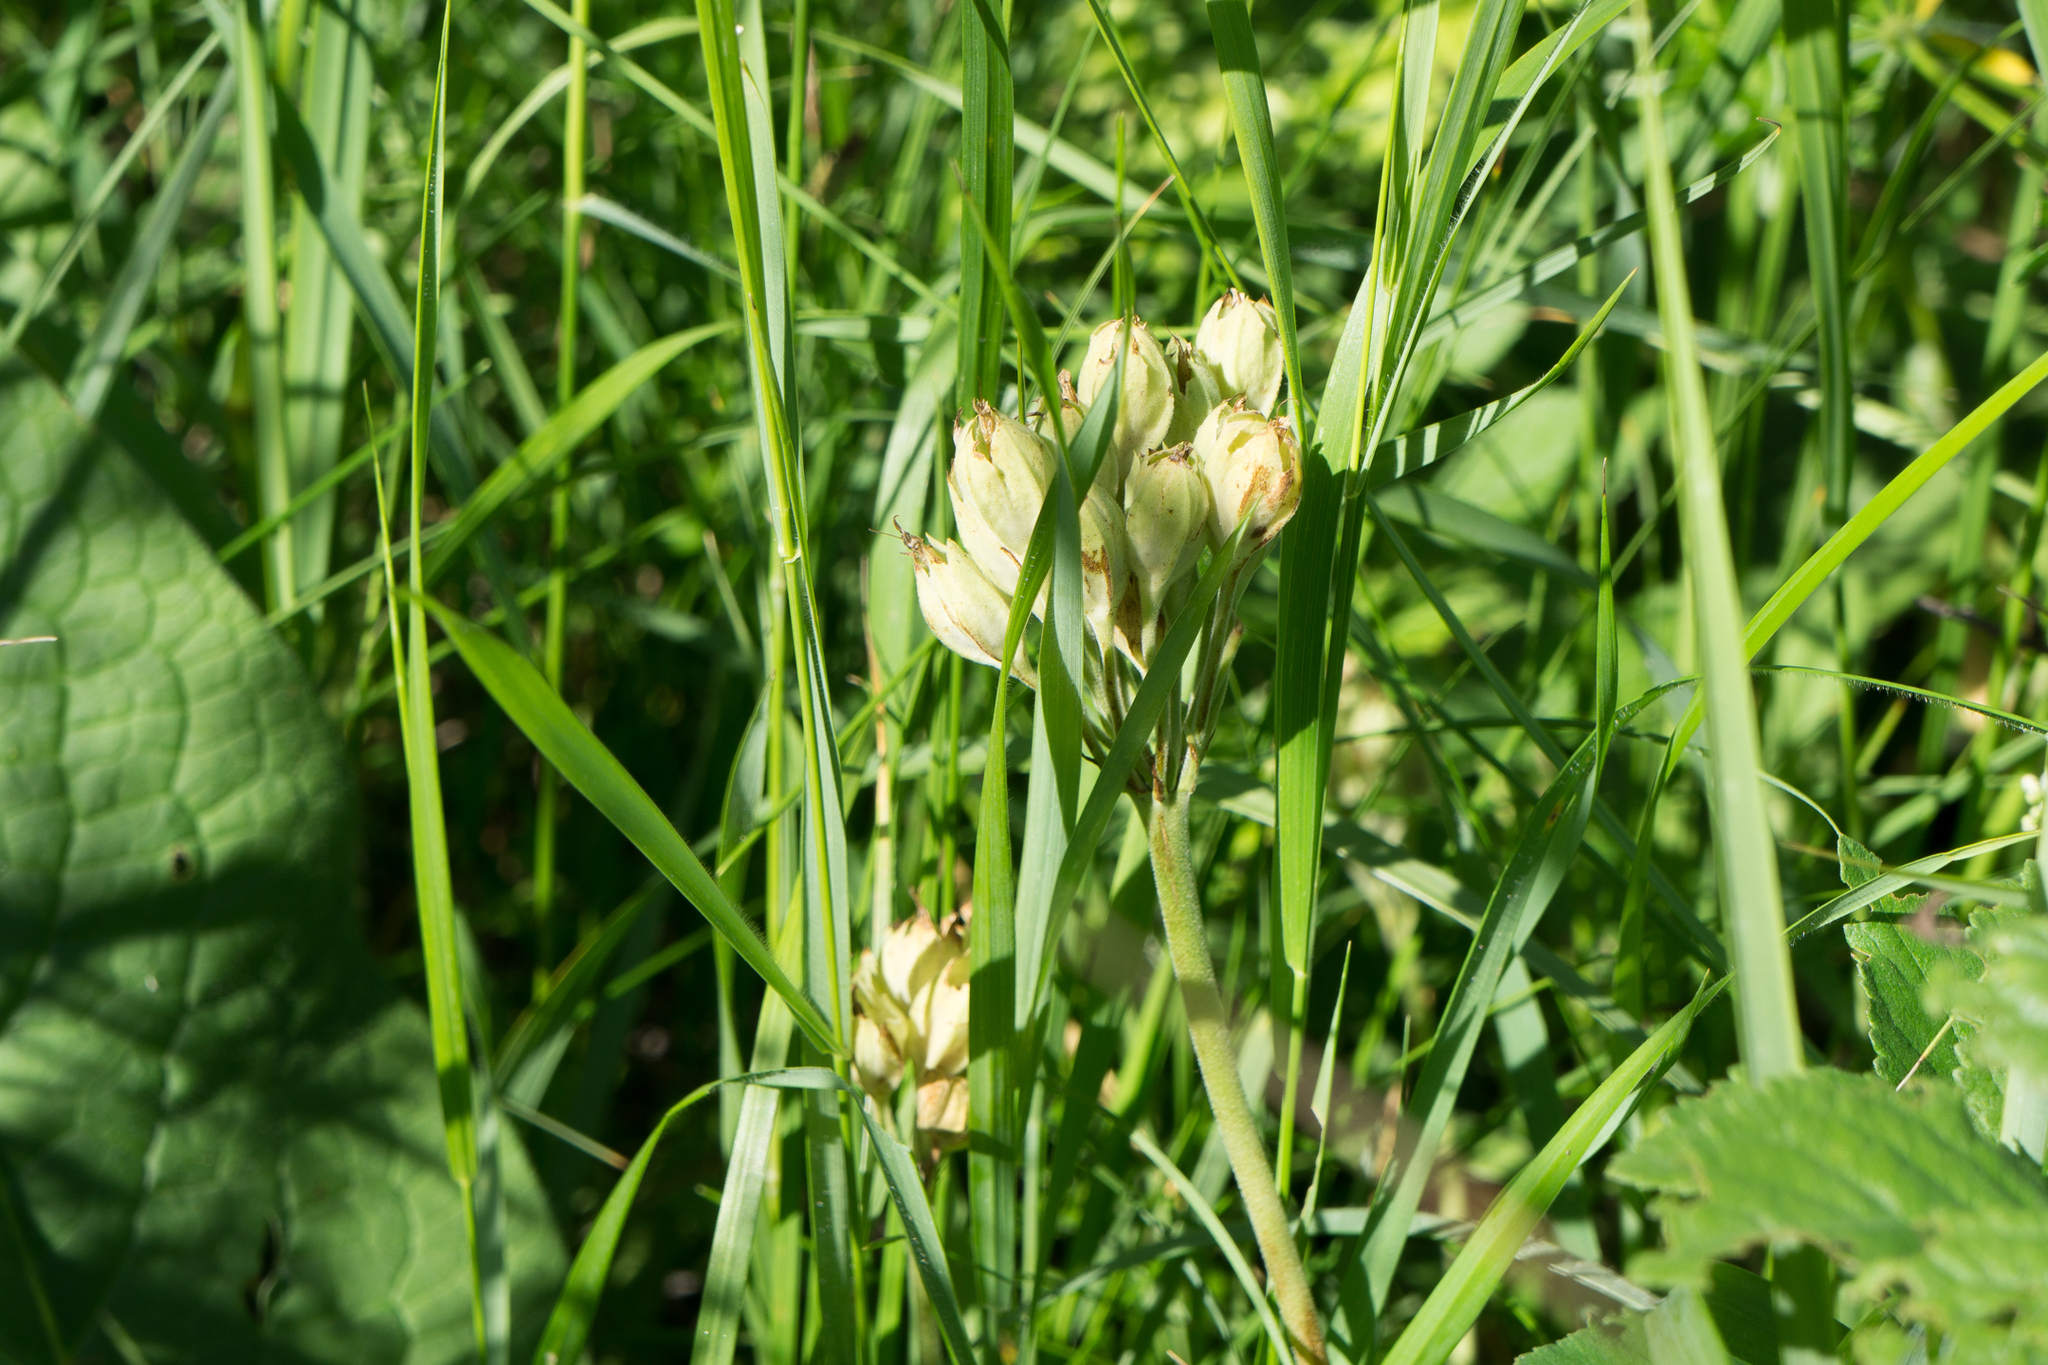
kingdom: Plantae
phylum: Tracheophyta
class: Magnoliopsida
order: Ericales
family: Primulaceae
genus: Primula
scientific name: Primula veris
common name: Cowslip
